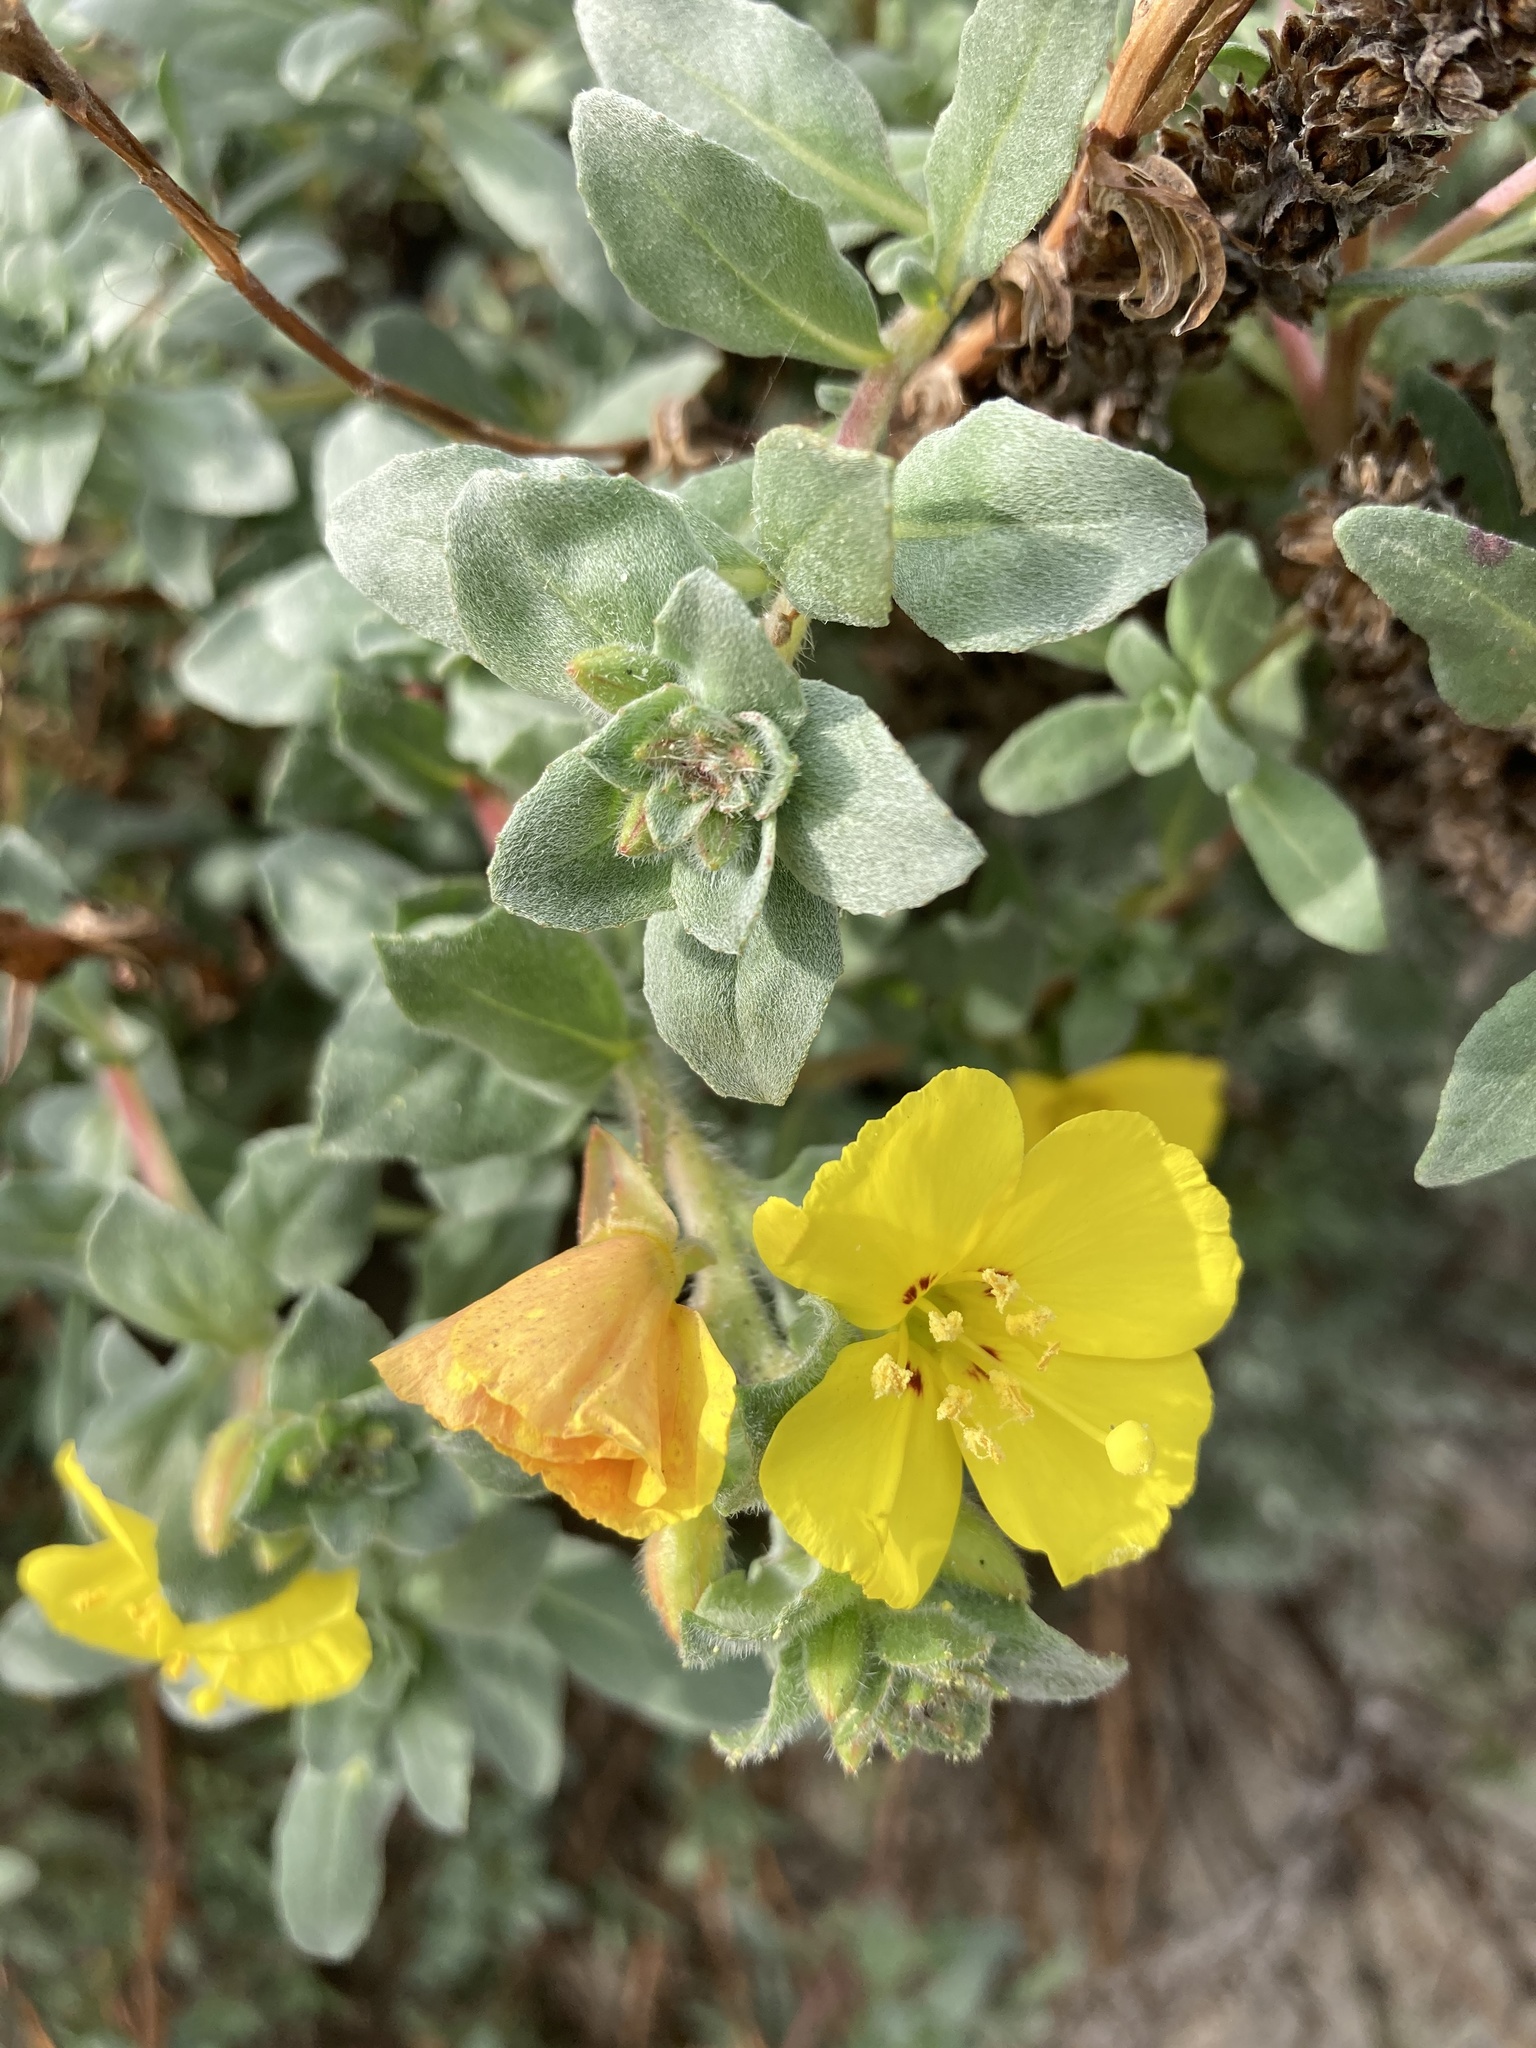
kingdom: Plantae
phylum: Tracheophyta
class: Magnoliopsida
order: Myrtales
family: Onagraceae
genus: Camissoniopsis
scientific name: Camissoniopsis cheiranthifolia
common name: Beach suncup
